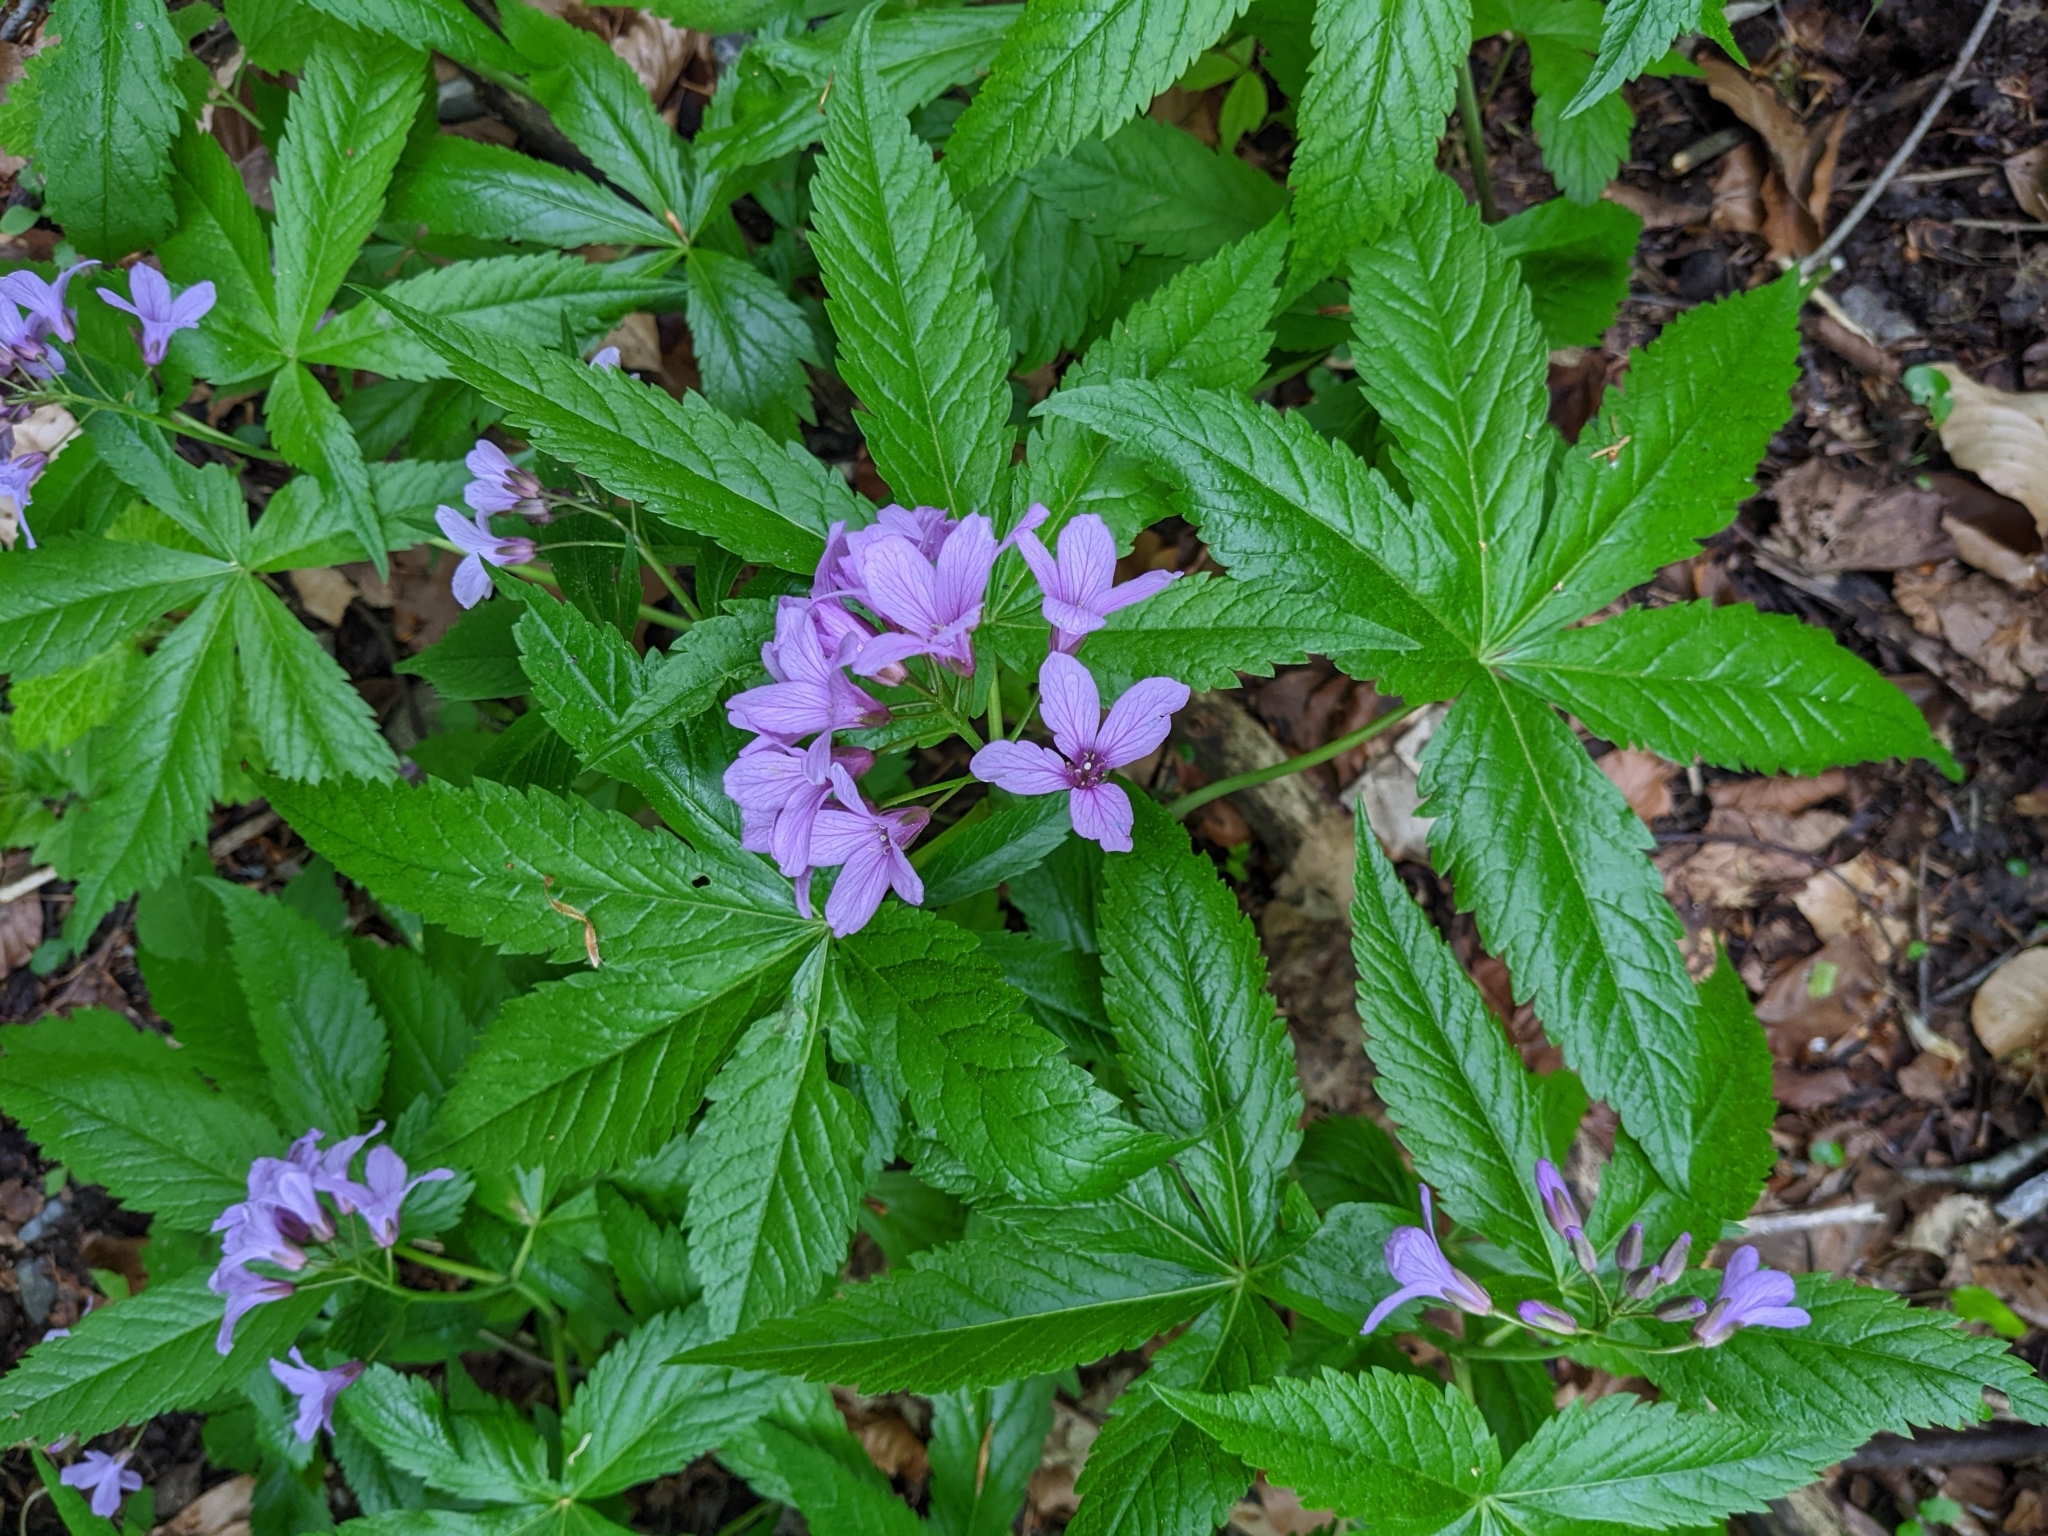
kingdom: Plantae
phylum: Tracheophyta
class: Magnoliopsida
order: Brassicales
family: Brassicaceae
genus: Cardamine
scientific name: Cardamine pentaphyllos
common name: Five-leaflet bitter-cress
